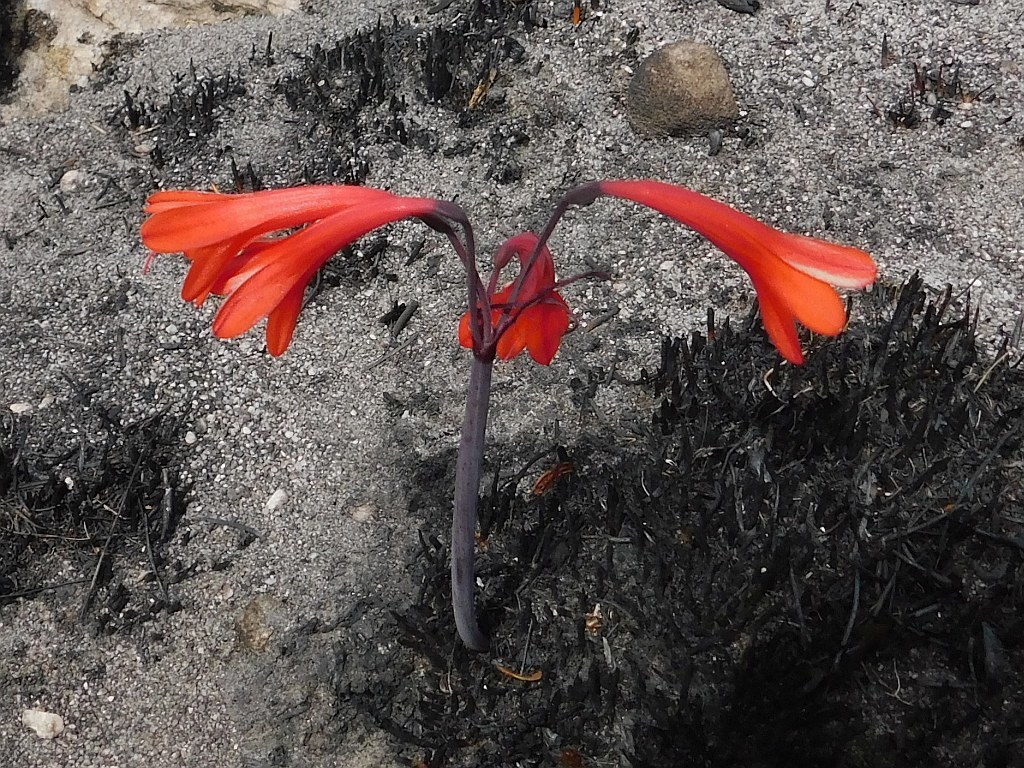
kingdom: Plantae
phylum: Tracheophyta
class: Liliopsida
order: Asparagales
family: Amaryllidaceae
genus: Cyrtanthus
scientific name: Cyrtanthus ventricosus
